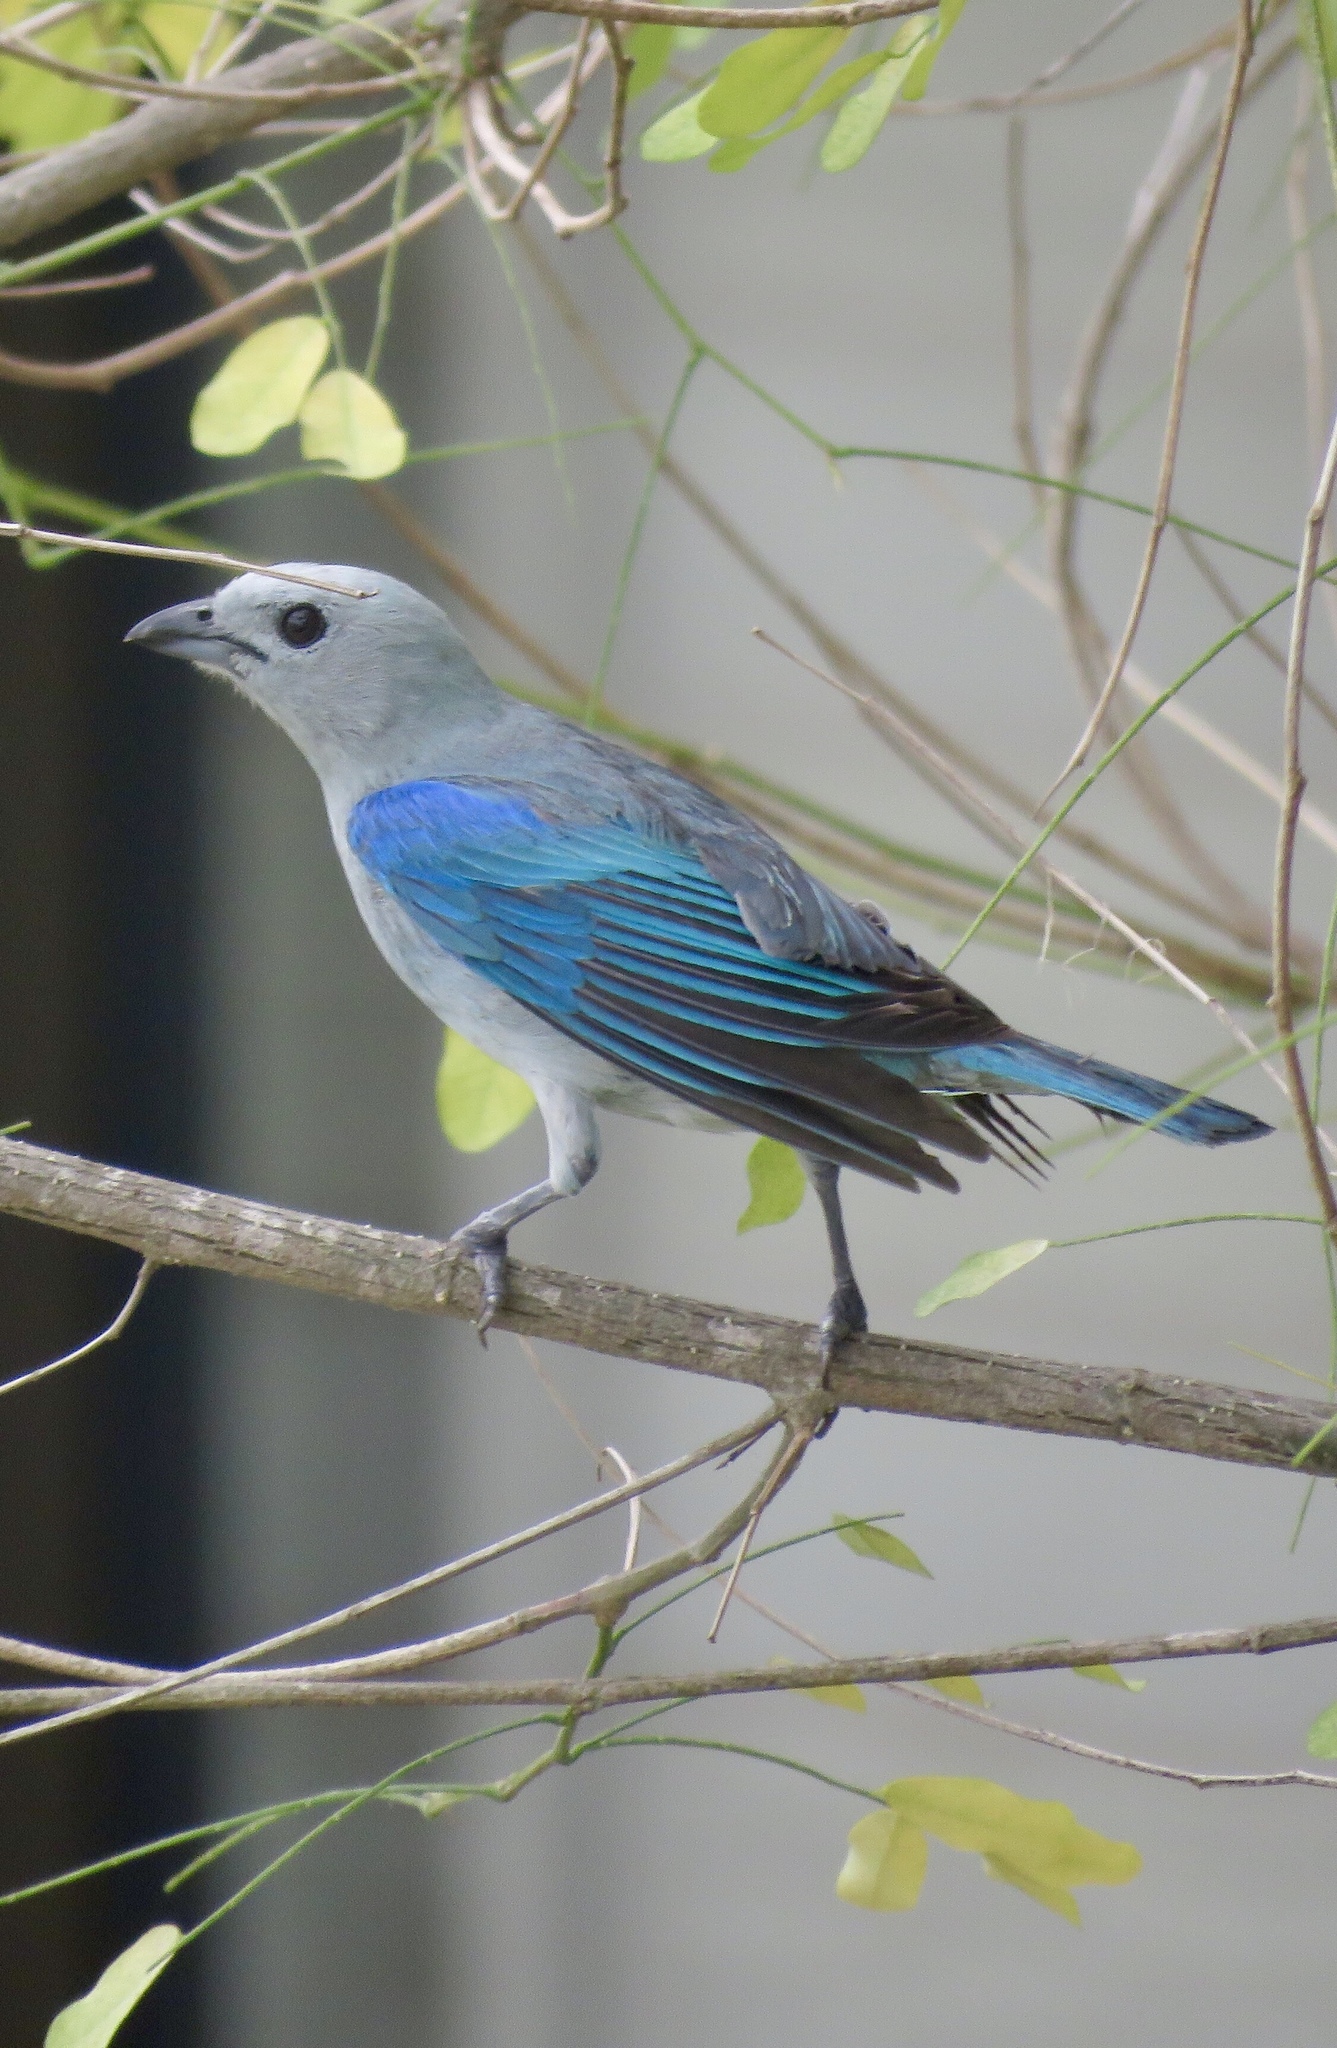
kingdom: Animalia
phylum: Chordata
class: Aves
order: Passeriformes
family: Thraupidae
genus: Thraupis
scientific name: Thraupis episcopus
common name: Blue-grey tanager
